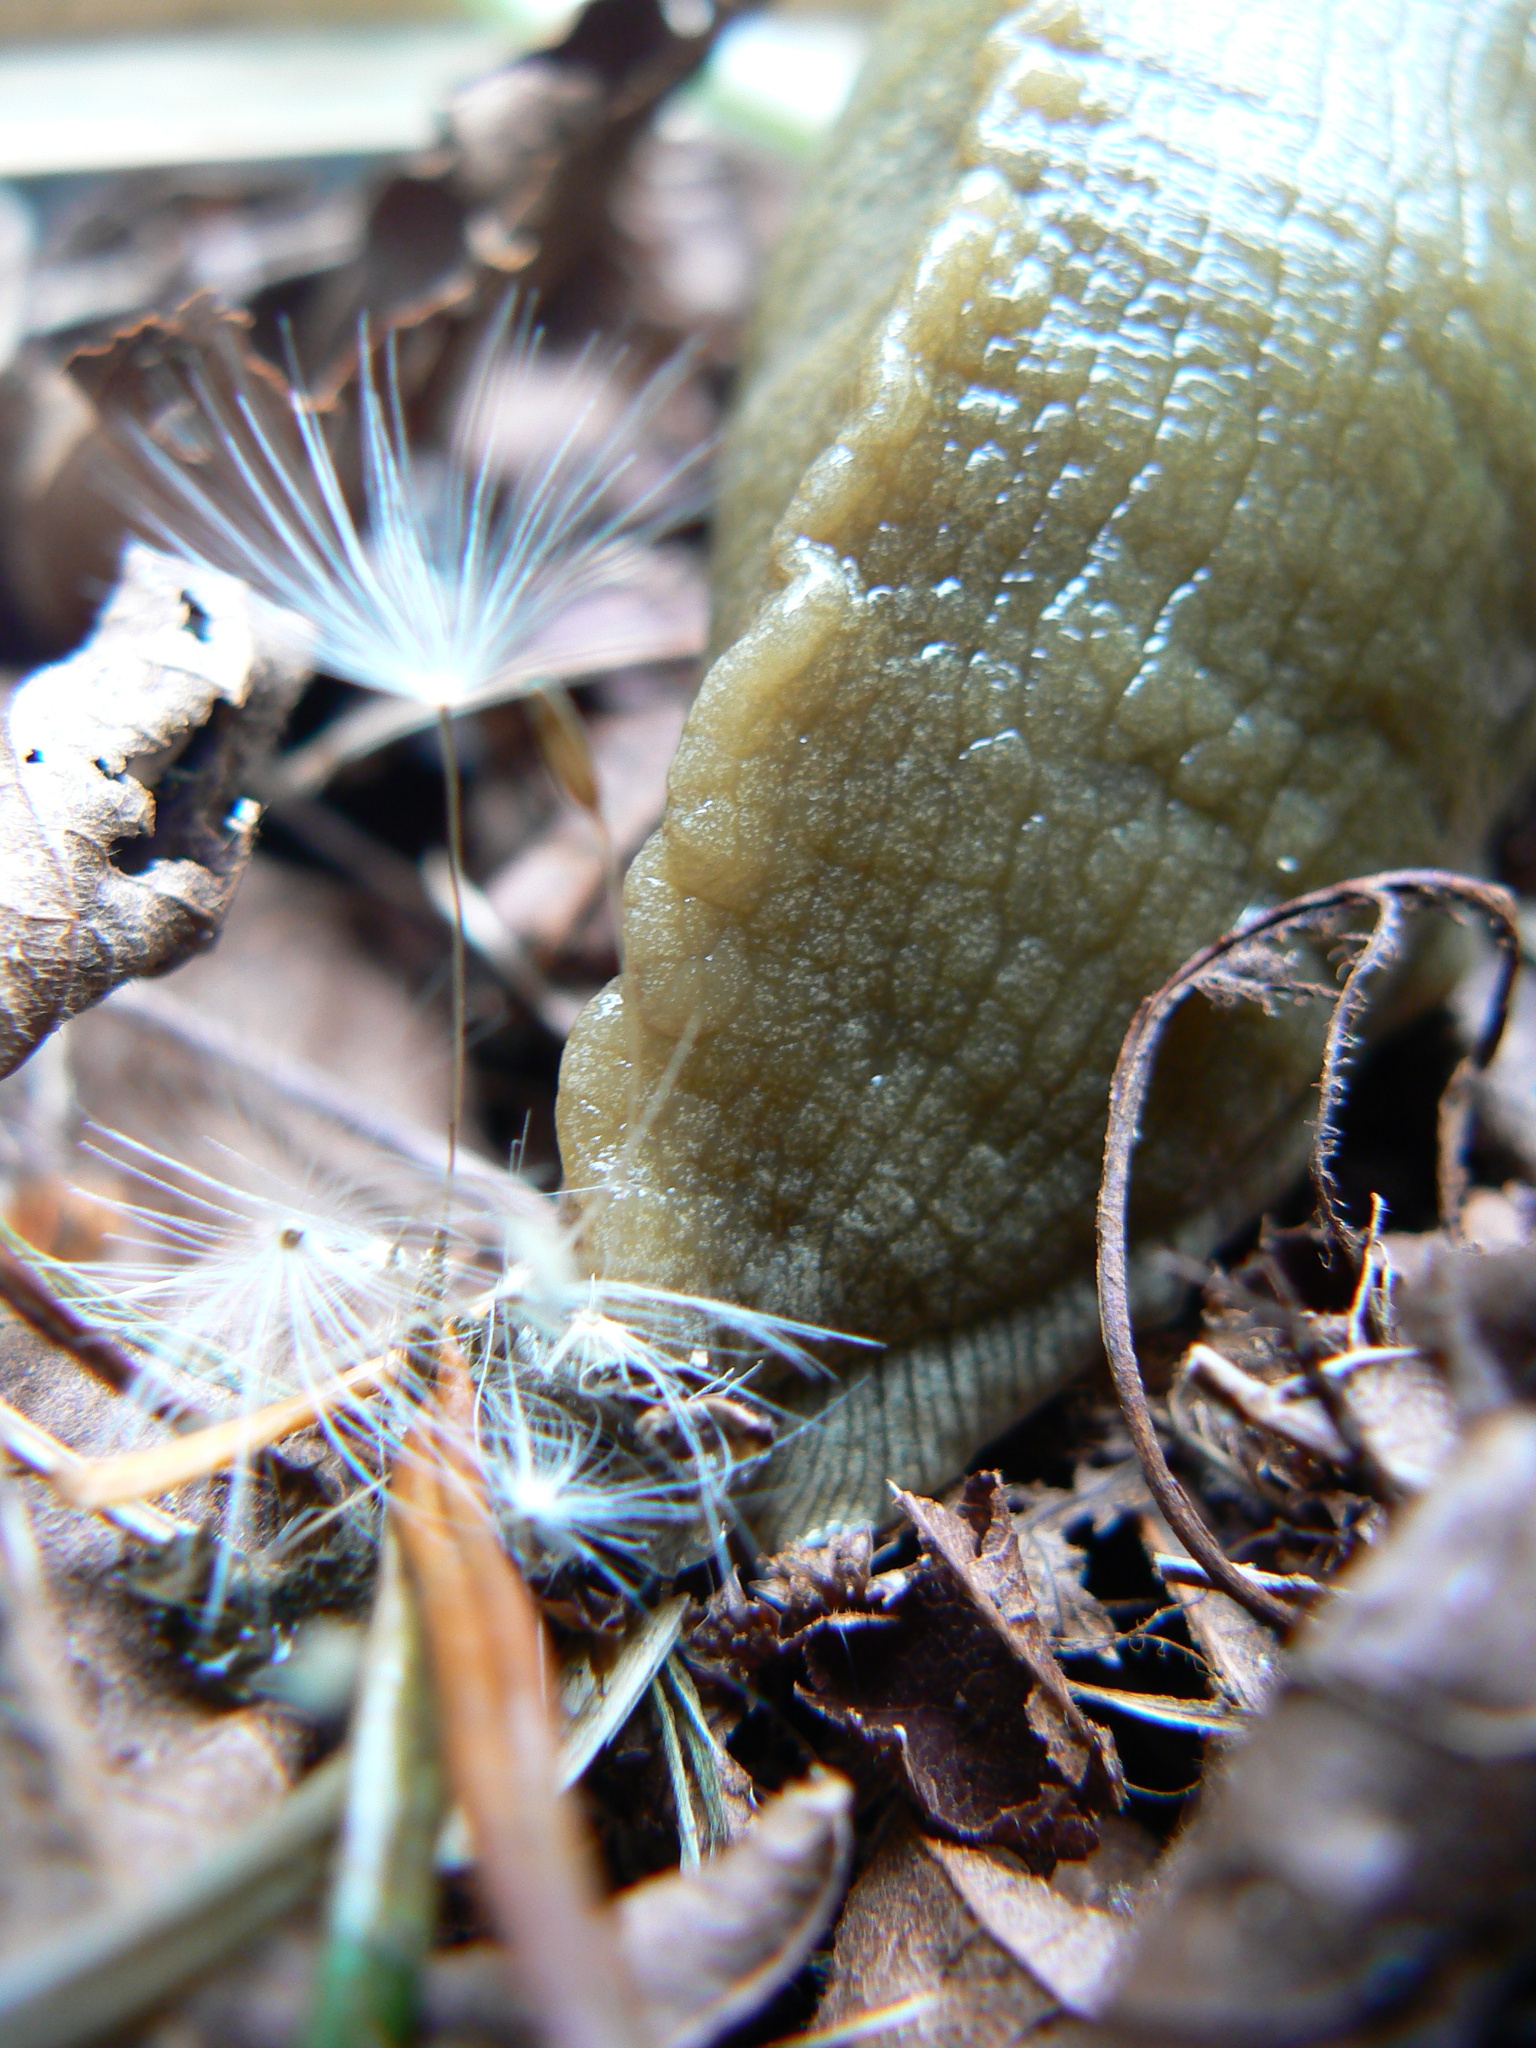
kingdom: Animalia
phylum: Mollusca
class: Gastropoda
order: Stylommatophora
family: Ariolimacidae
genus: Ariolimax
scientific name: Ariolimax columbianus
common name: Pacific banana slug
